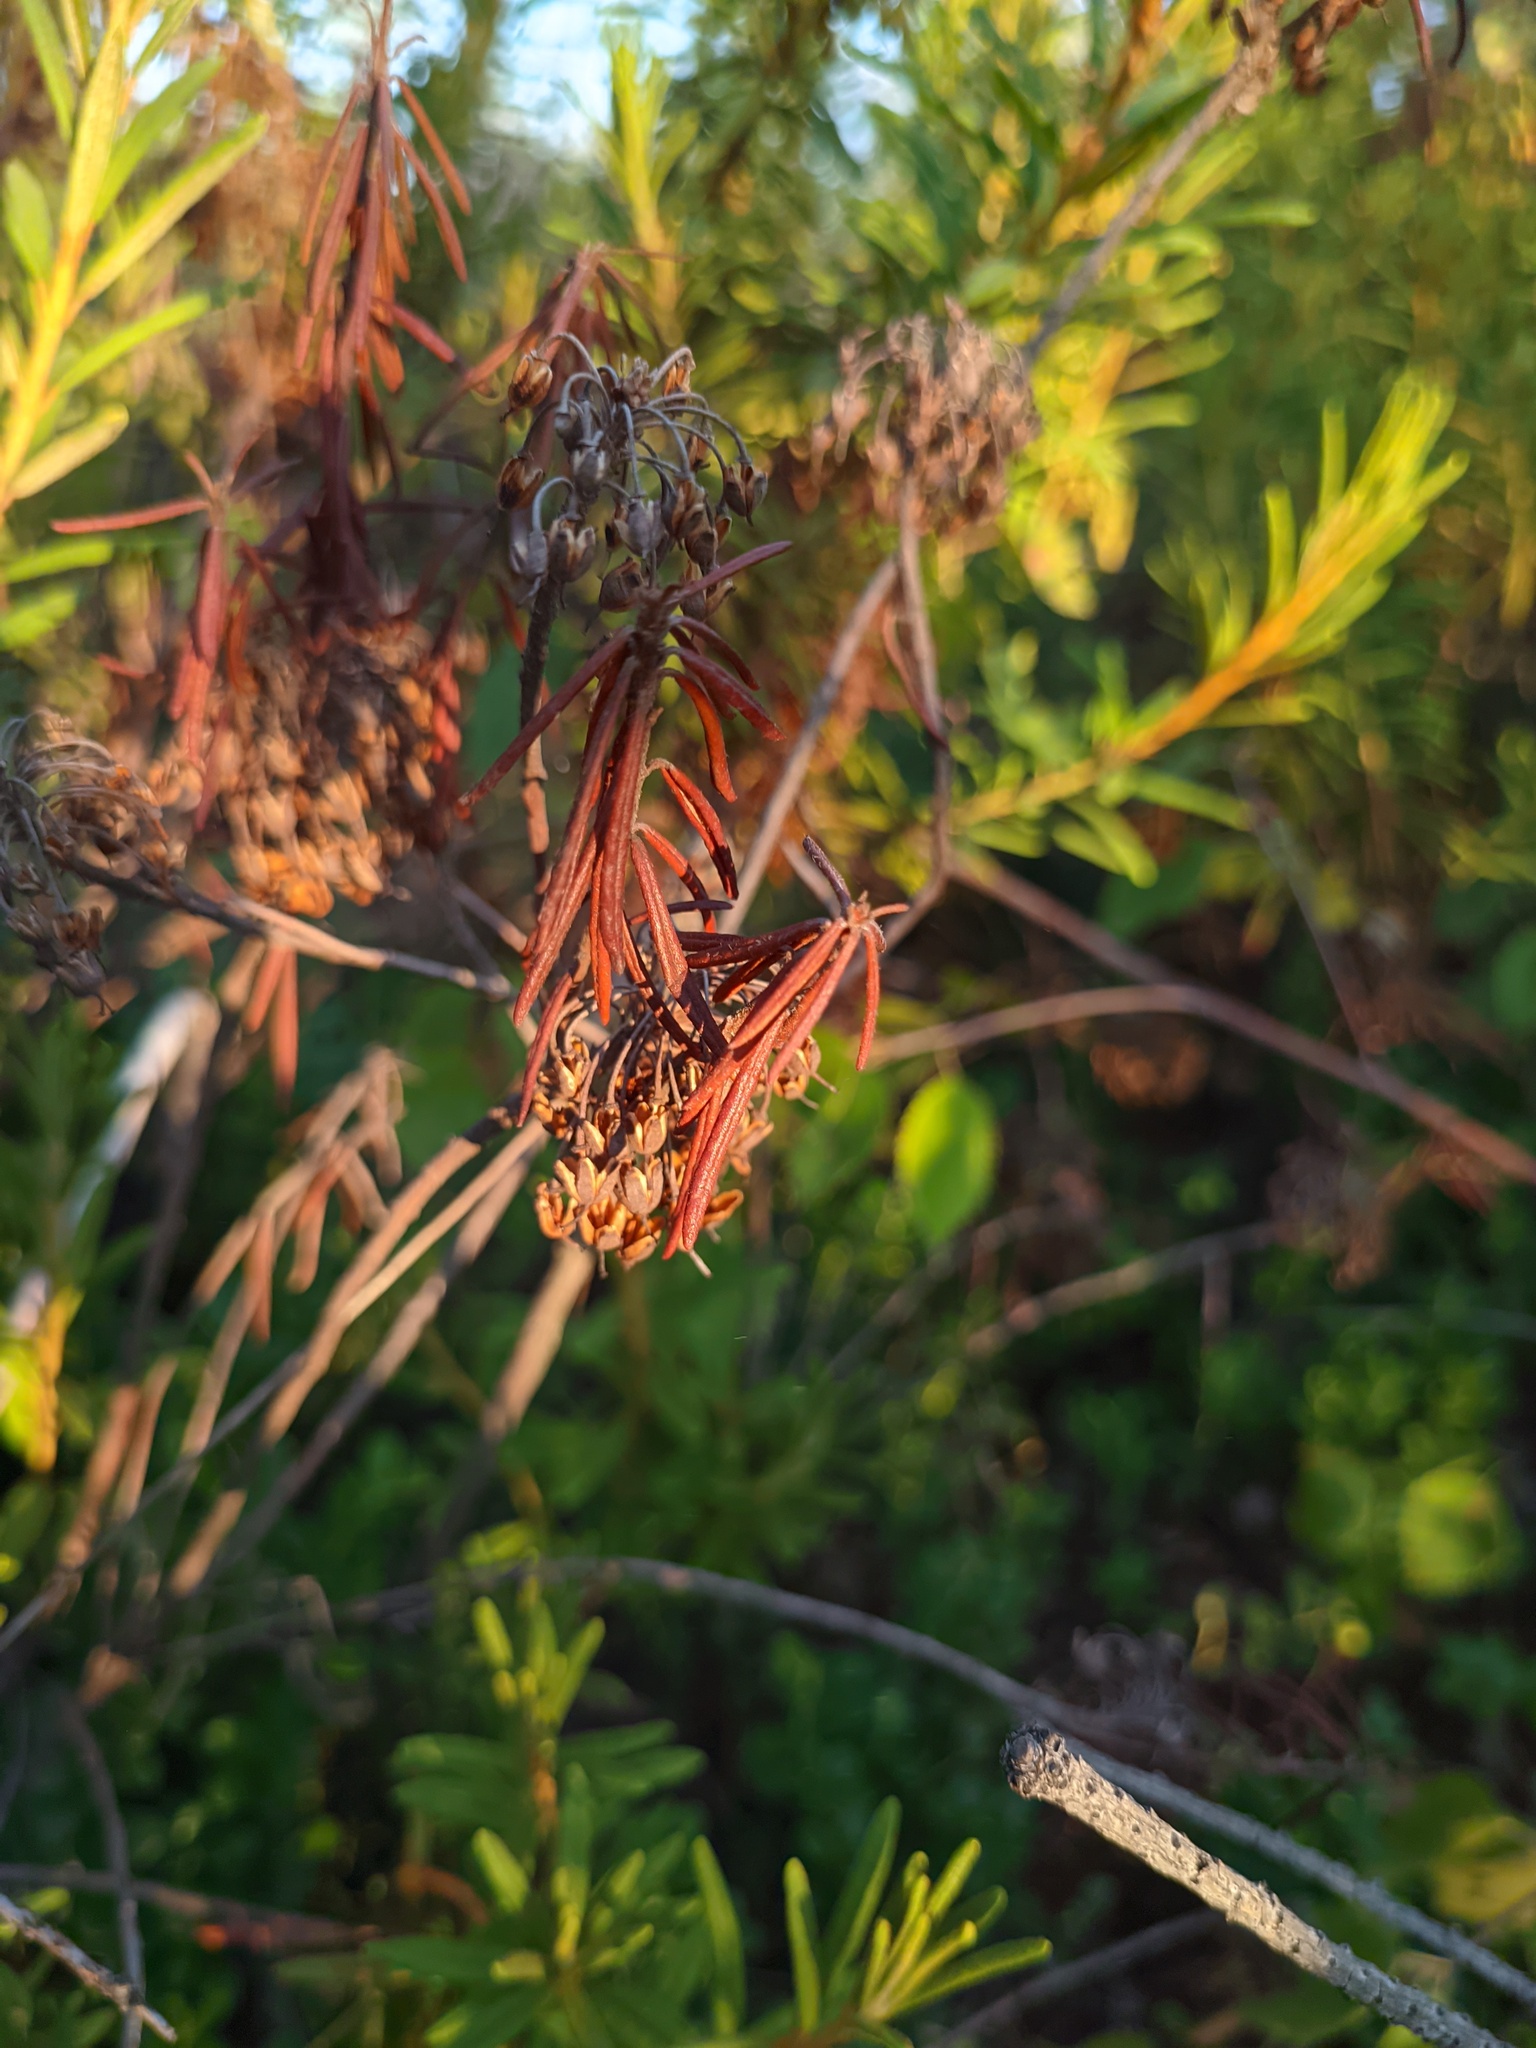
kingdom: Plantae
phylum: Tracheophyta
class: Magnoliopsida
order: Ericales
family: Ericaceae
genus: Rhododendron
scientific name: Rhododendron tomentosum
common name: Marsh labrador tea
